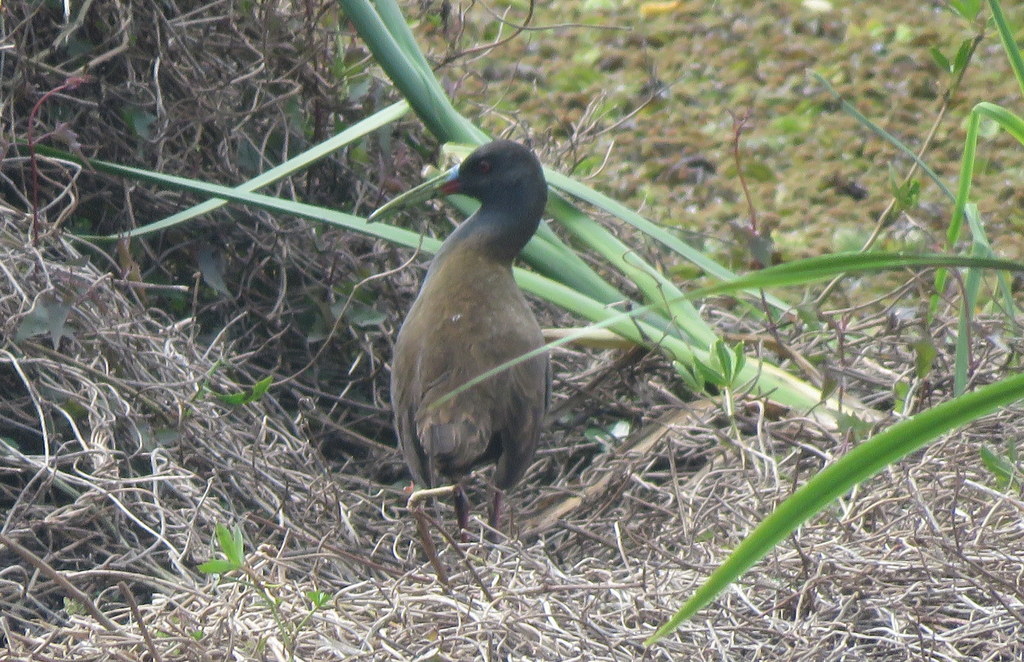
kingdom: Animalia
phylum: Chordata
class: Aves
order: Gruiformes
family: Rallidae
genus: Pardirallus
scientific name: Pardirallus sanguinolentus
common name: Plumbeous rail
